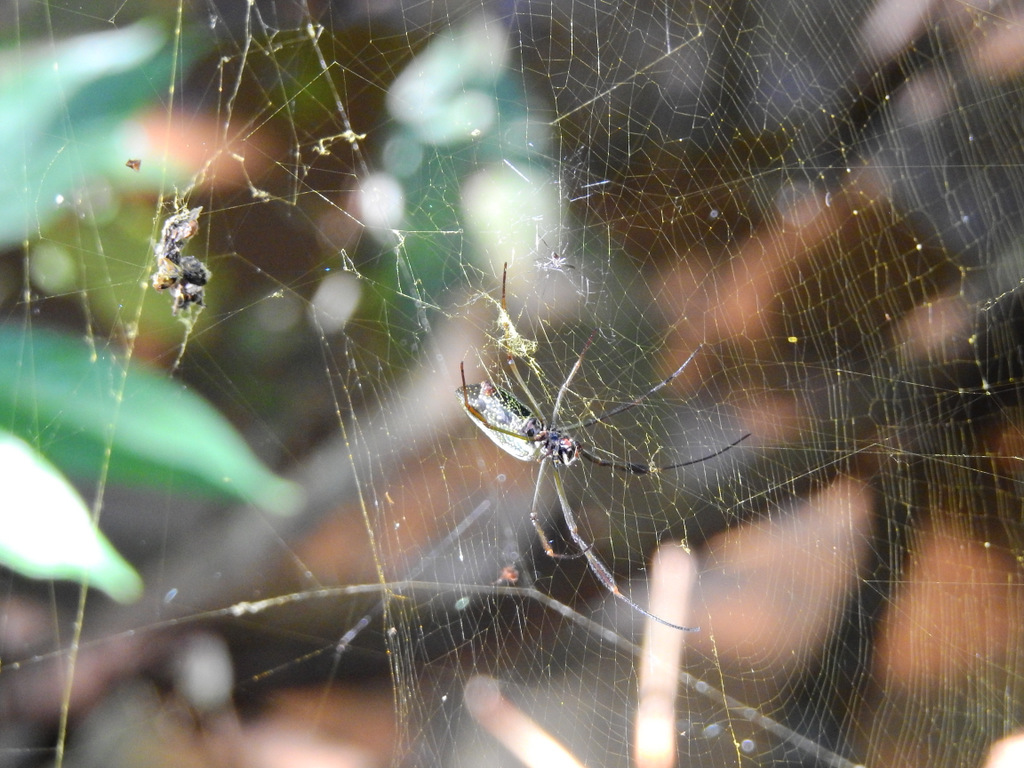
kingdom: Animalia
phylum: Arthropoda
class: Arachnida
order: Araneae
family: Araneidae
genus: Trichonephila
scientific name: Trichonephila clavipes
